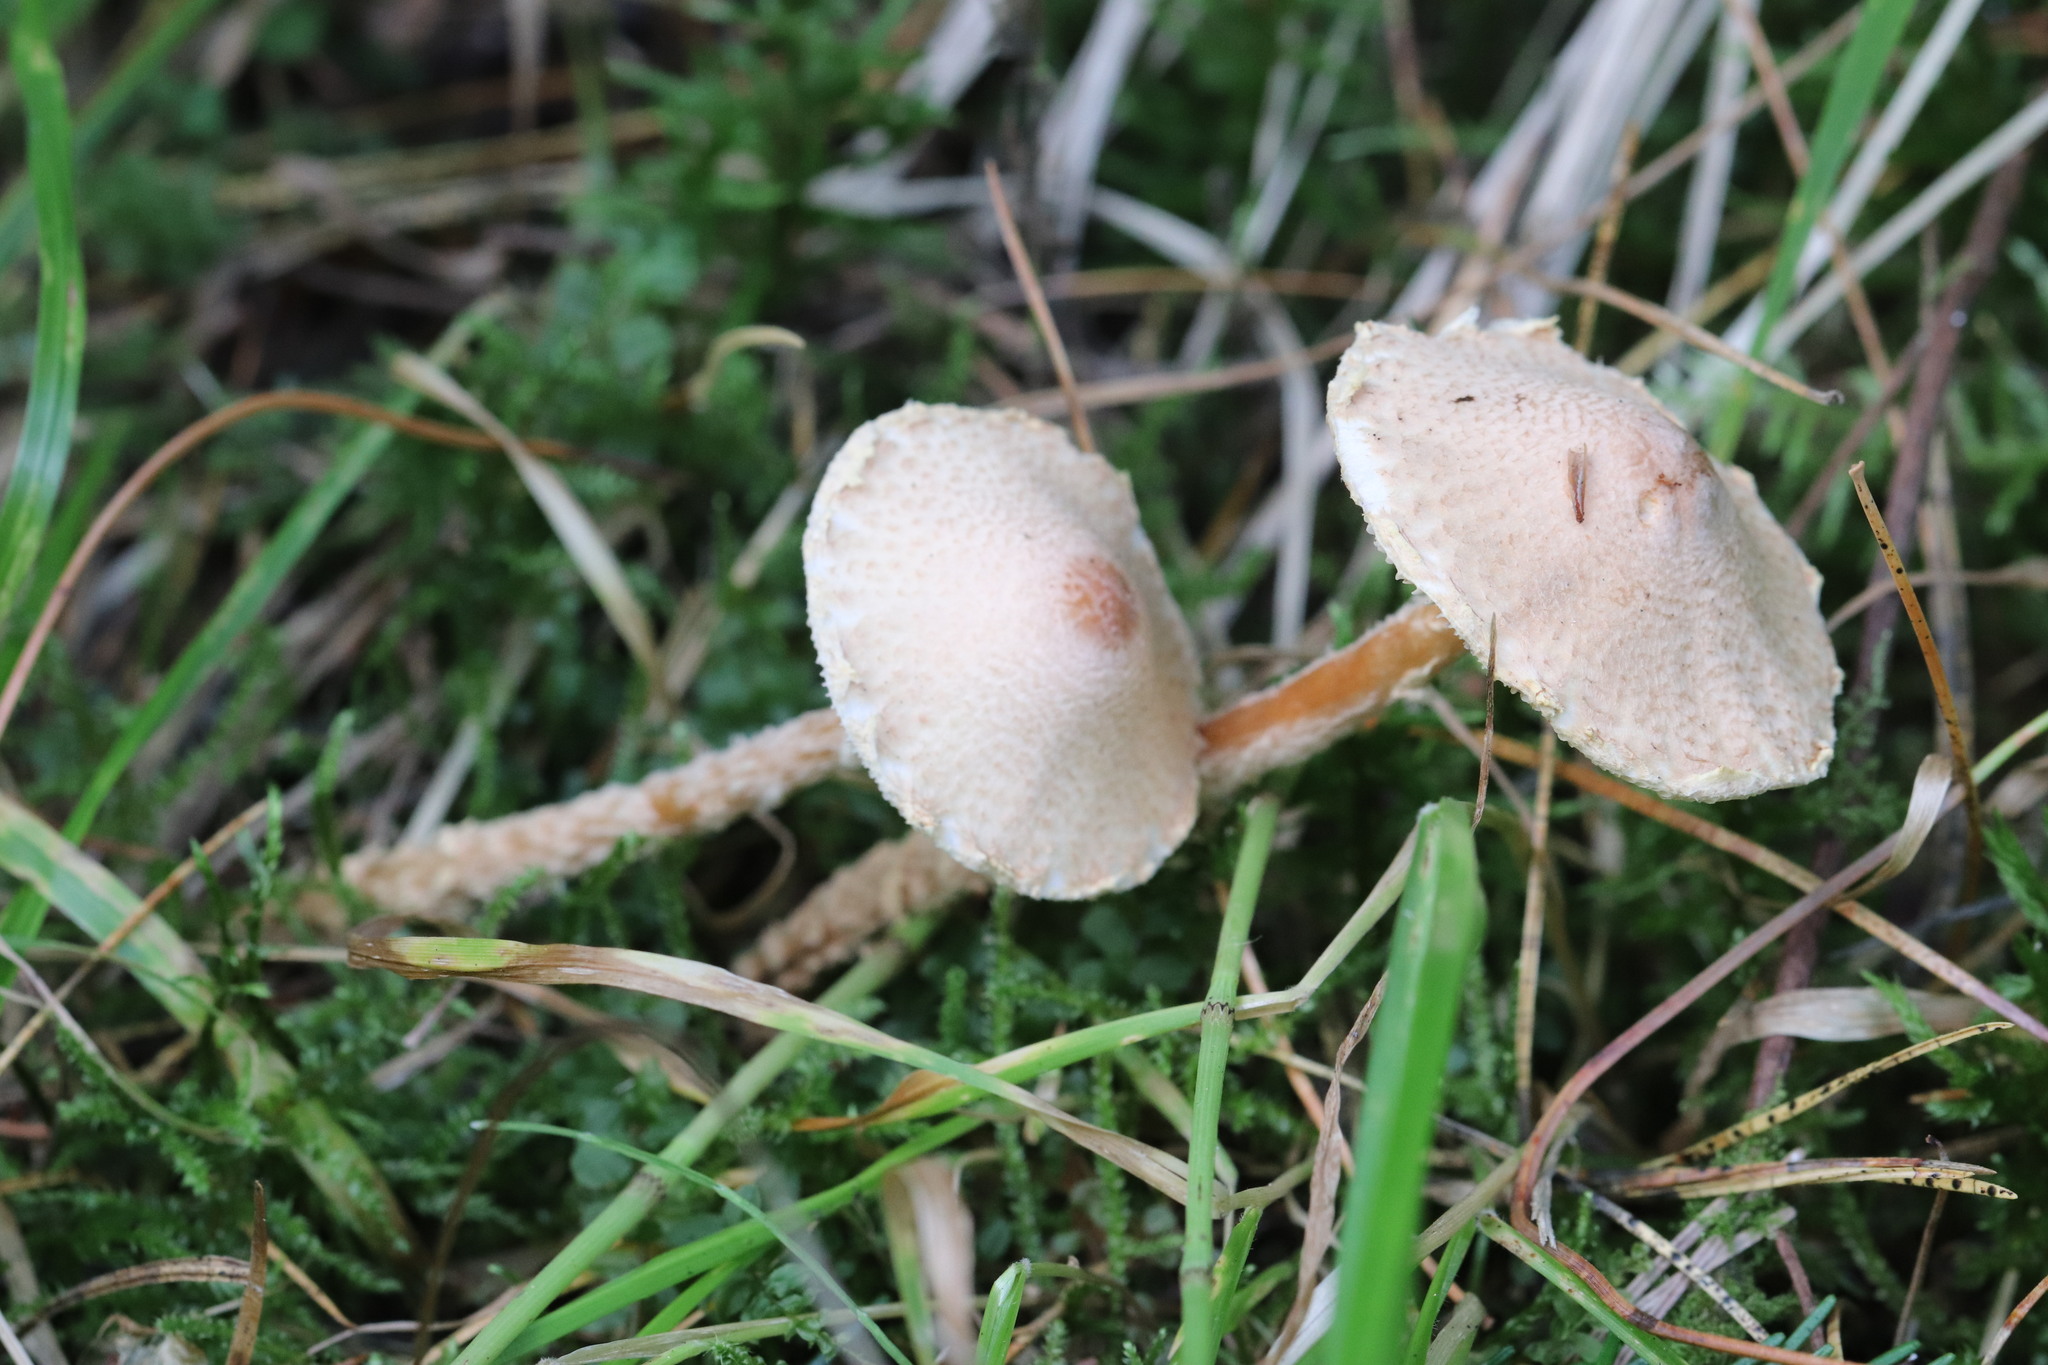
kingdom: Fungi
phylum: Basidiomycota
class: Agaricomycetes
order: Agaricales
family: Agaricaceae
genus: Lepiota
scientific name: Lepiota clypeolaria
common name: Shield dapperling
